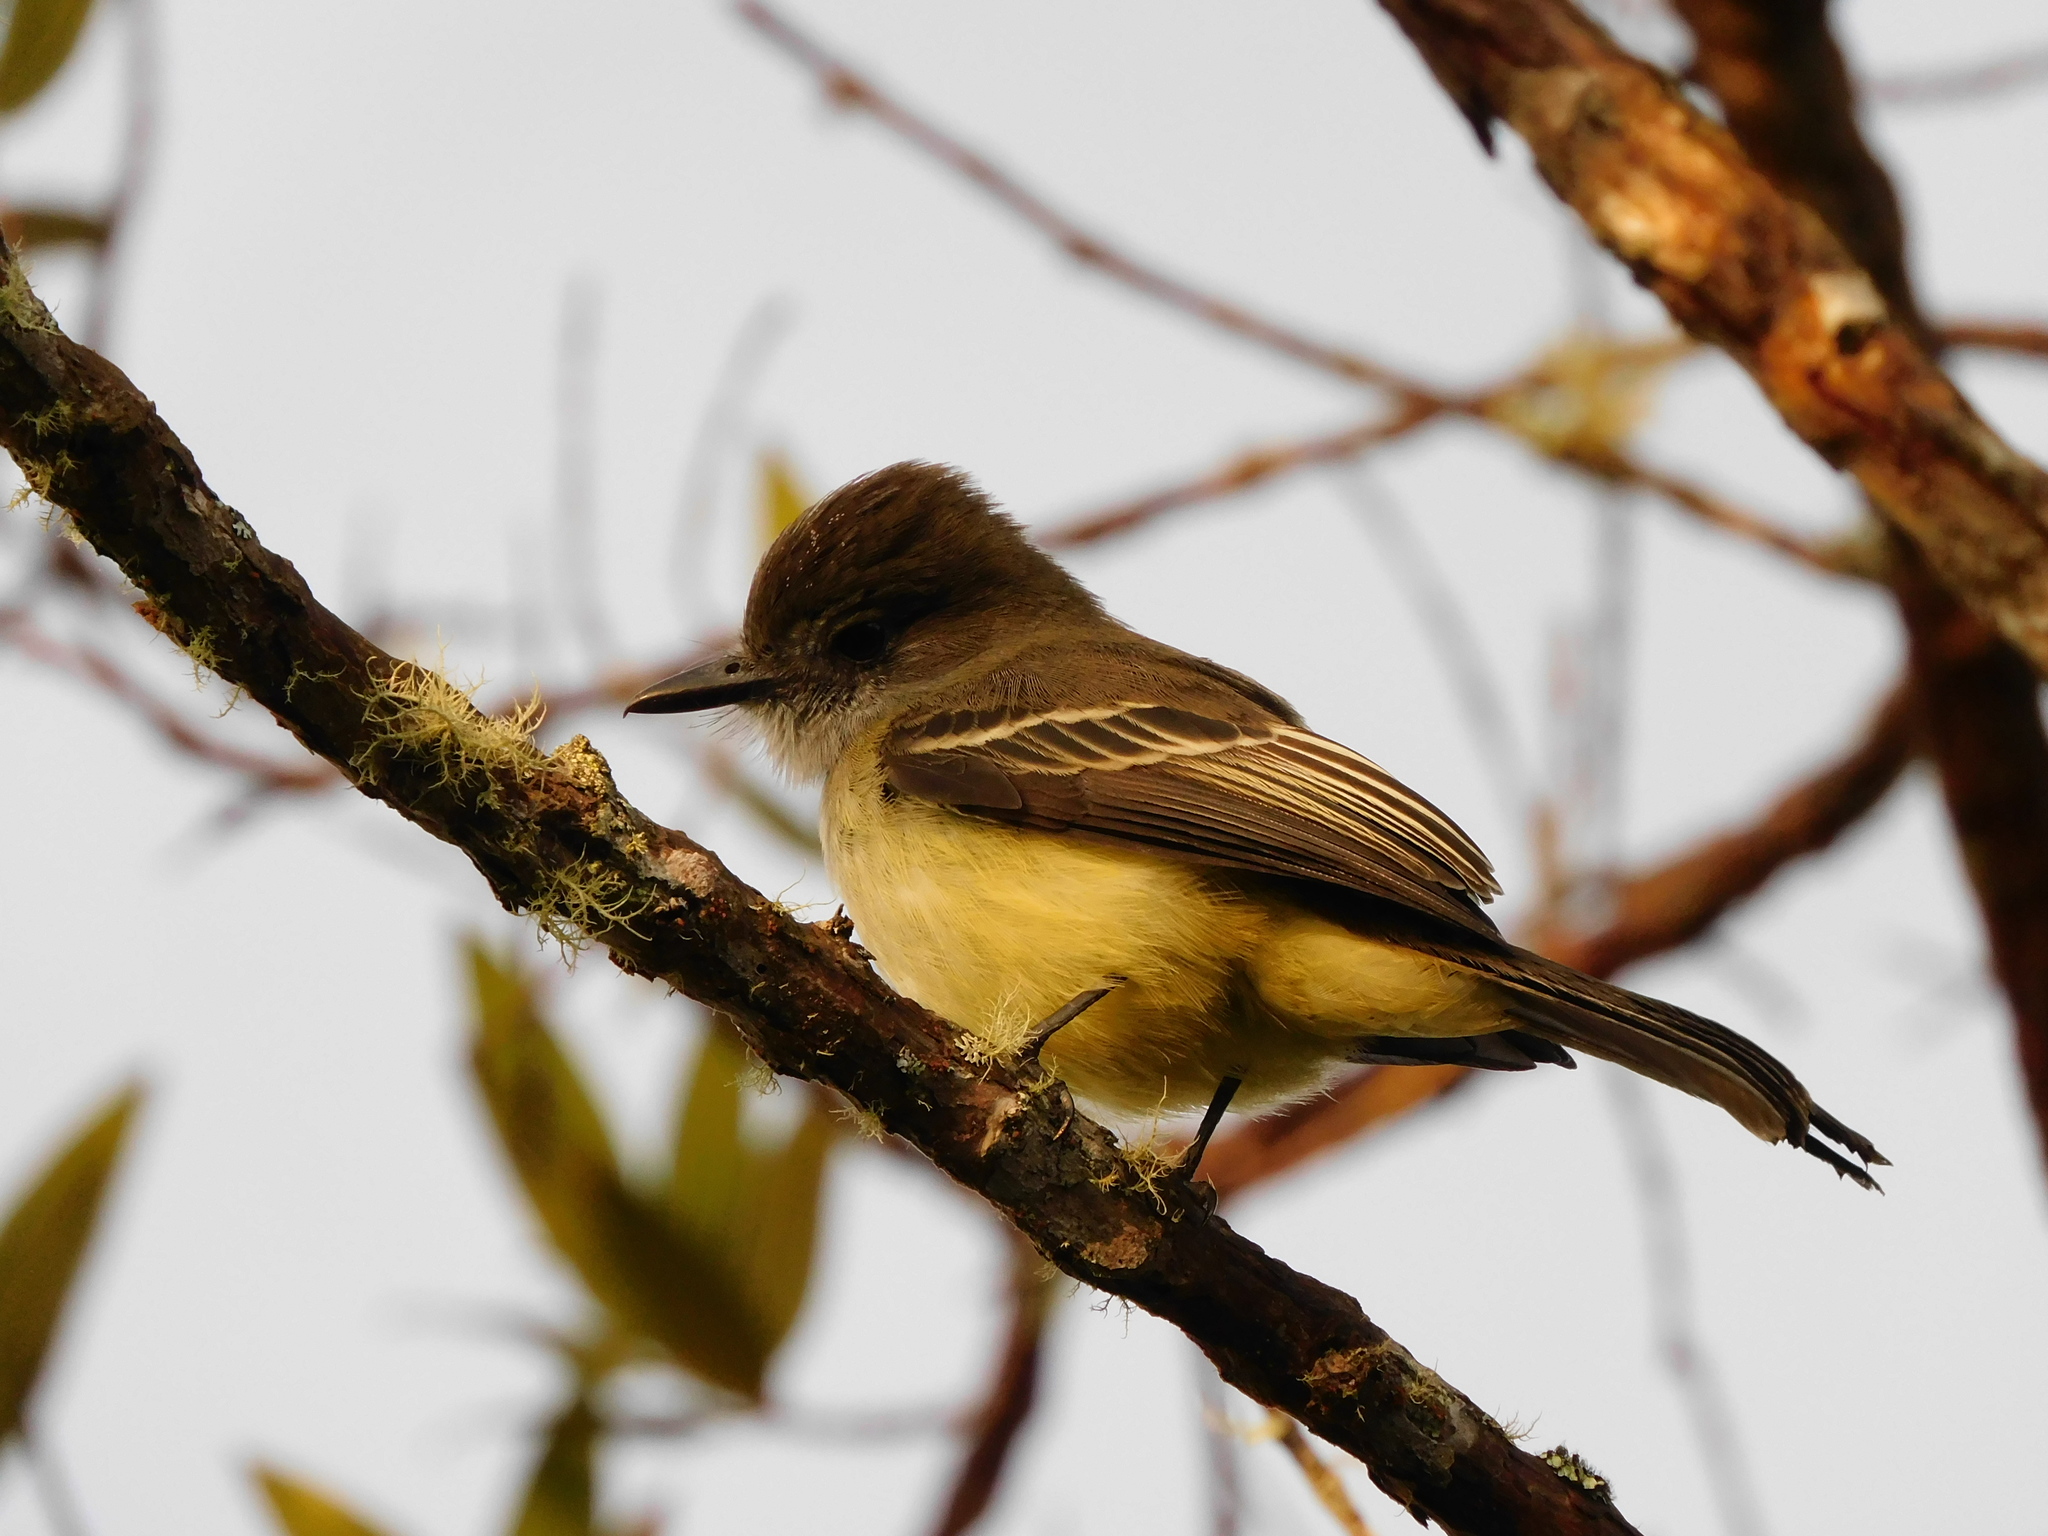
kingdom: Animalia
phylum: Chordata
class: Aves
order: Passeriformes
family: Tyrannidae
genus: Myiarchus
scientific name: Myiarchus cephalotes
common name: Pale-edged flycatcher
